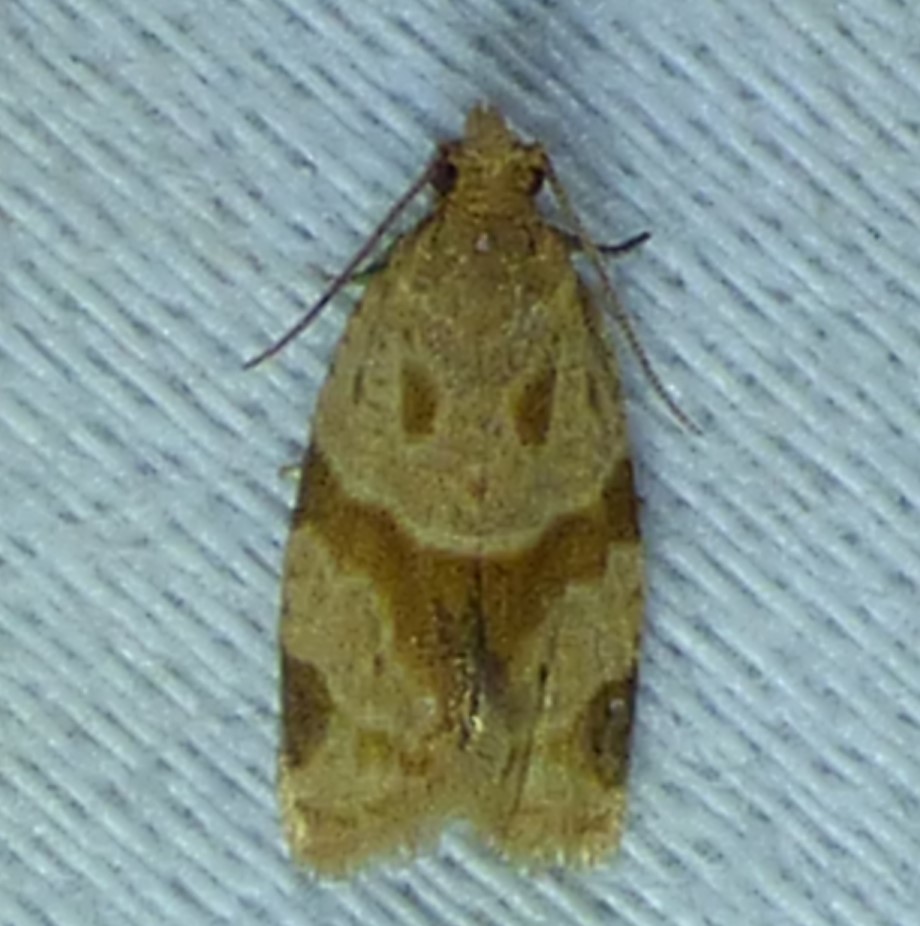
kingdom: Animalia
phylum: Arthropoda
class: Insecta
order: Lepidoptera
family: Tortricidae
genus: Clepsis
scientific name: Clepsis peritana
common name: Garden tortrix
